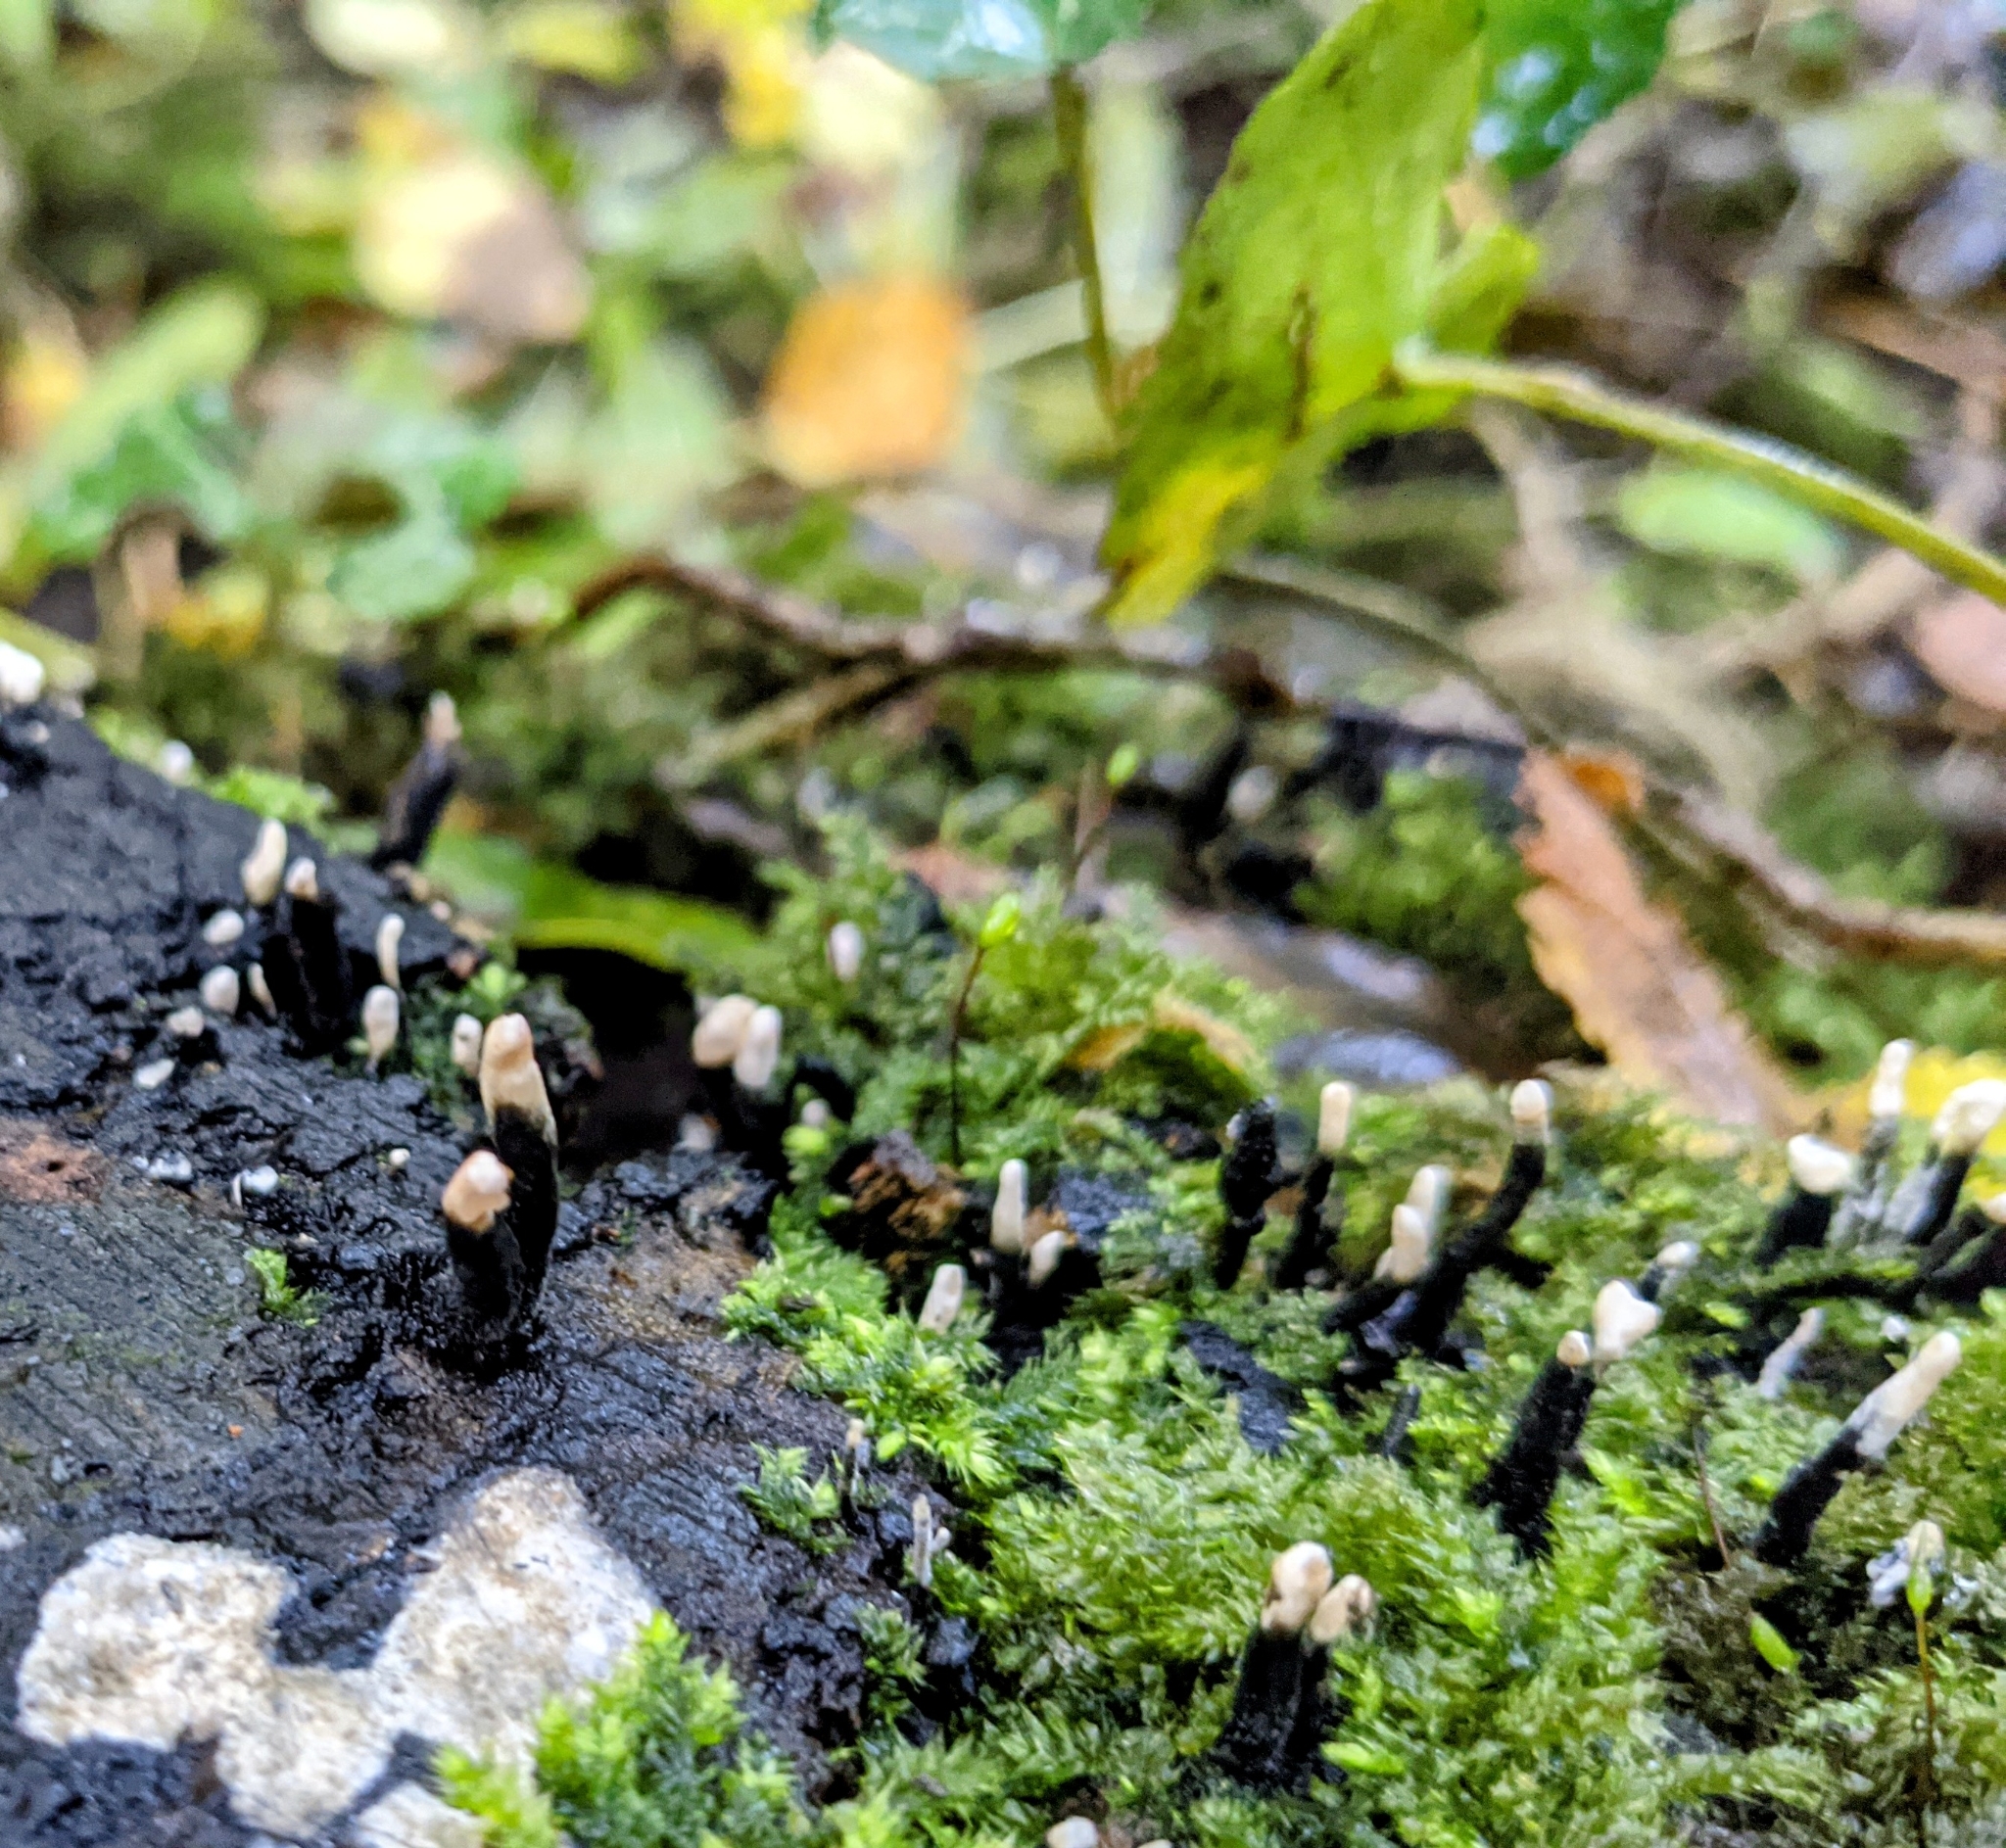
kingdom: Fungi
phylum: Ascomycota
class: Sordariomycetes
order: Xylariales
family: Xylariaceae
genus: Xylaria
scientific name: Xylaria hypoxylon
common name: Candle-snuff fungus
